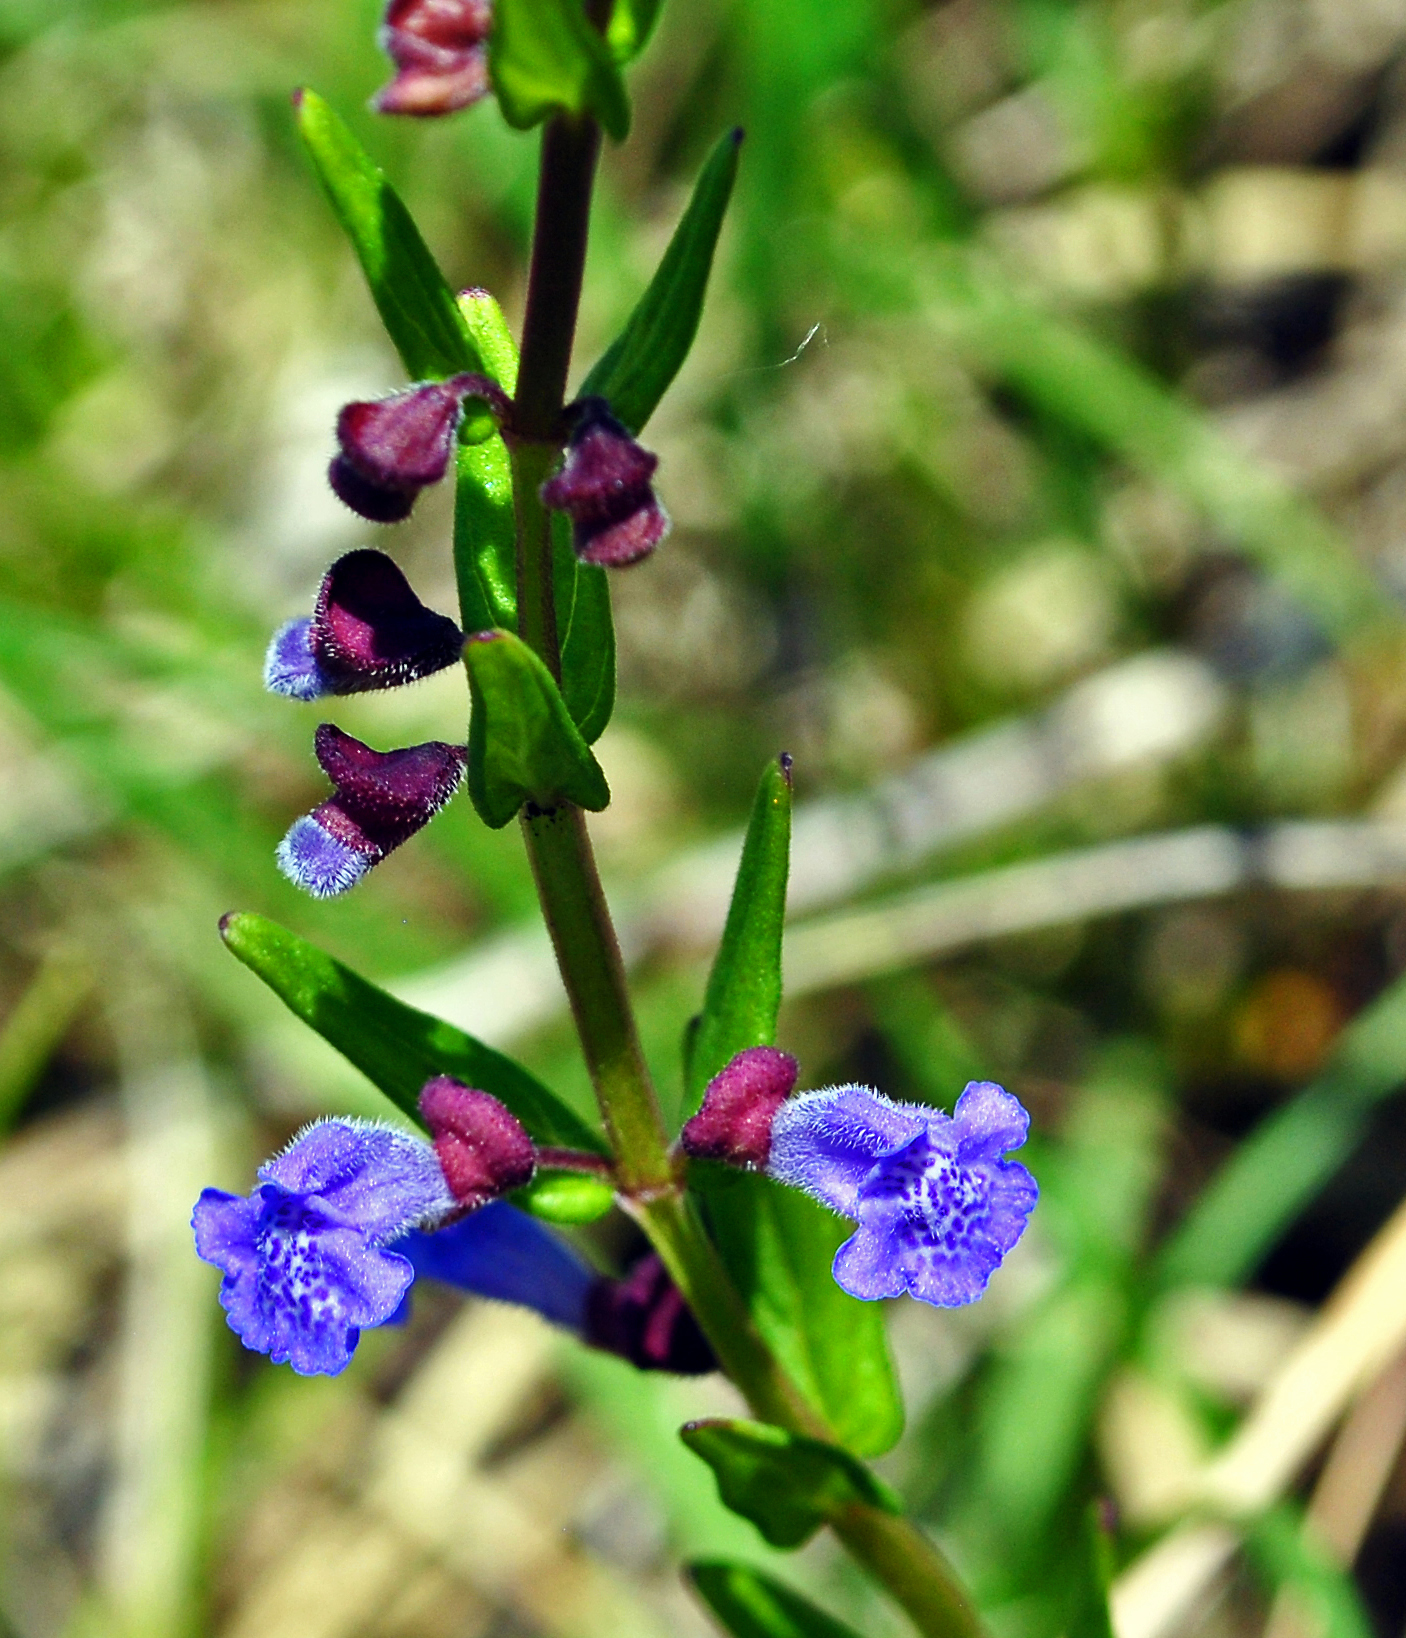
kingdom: Plantae
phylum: Tracheophyta
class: Magnoliopsida
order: Lamiales
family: Lamiaceae
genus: Scutellaria
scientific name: Scutellaria parvula
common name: Little scullcap
